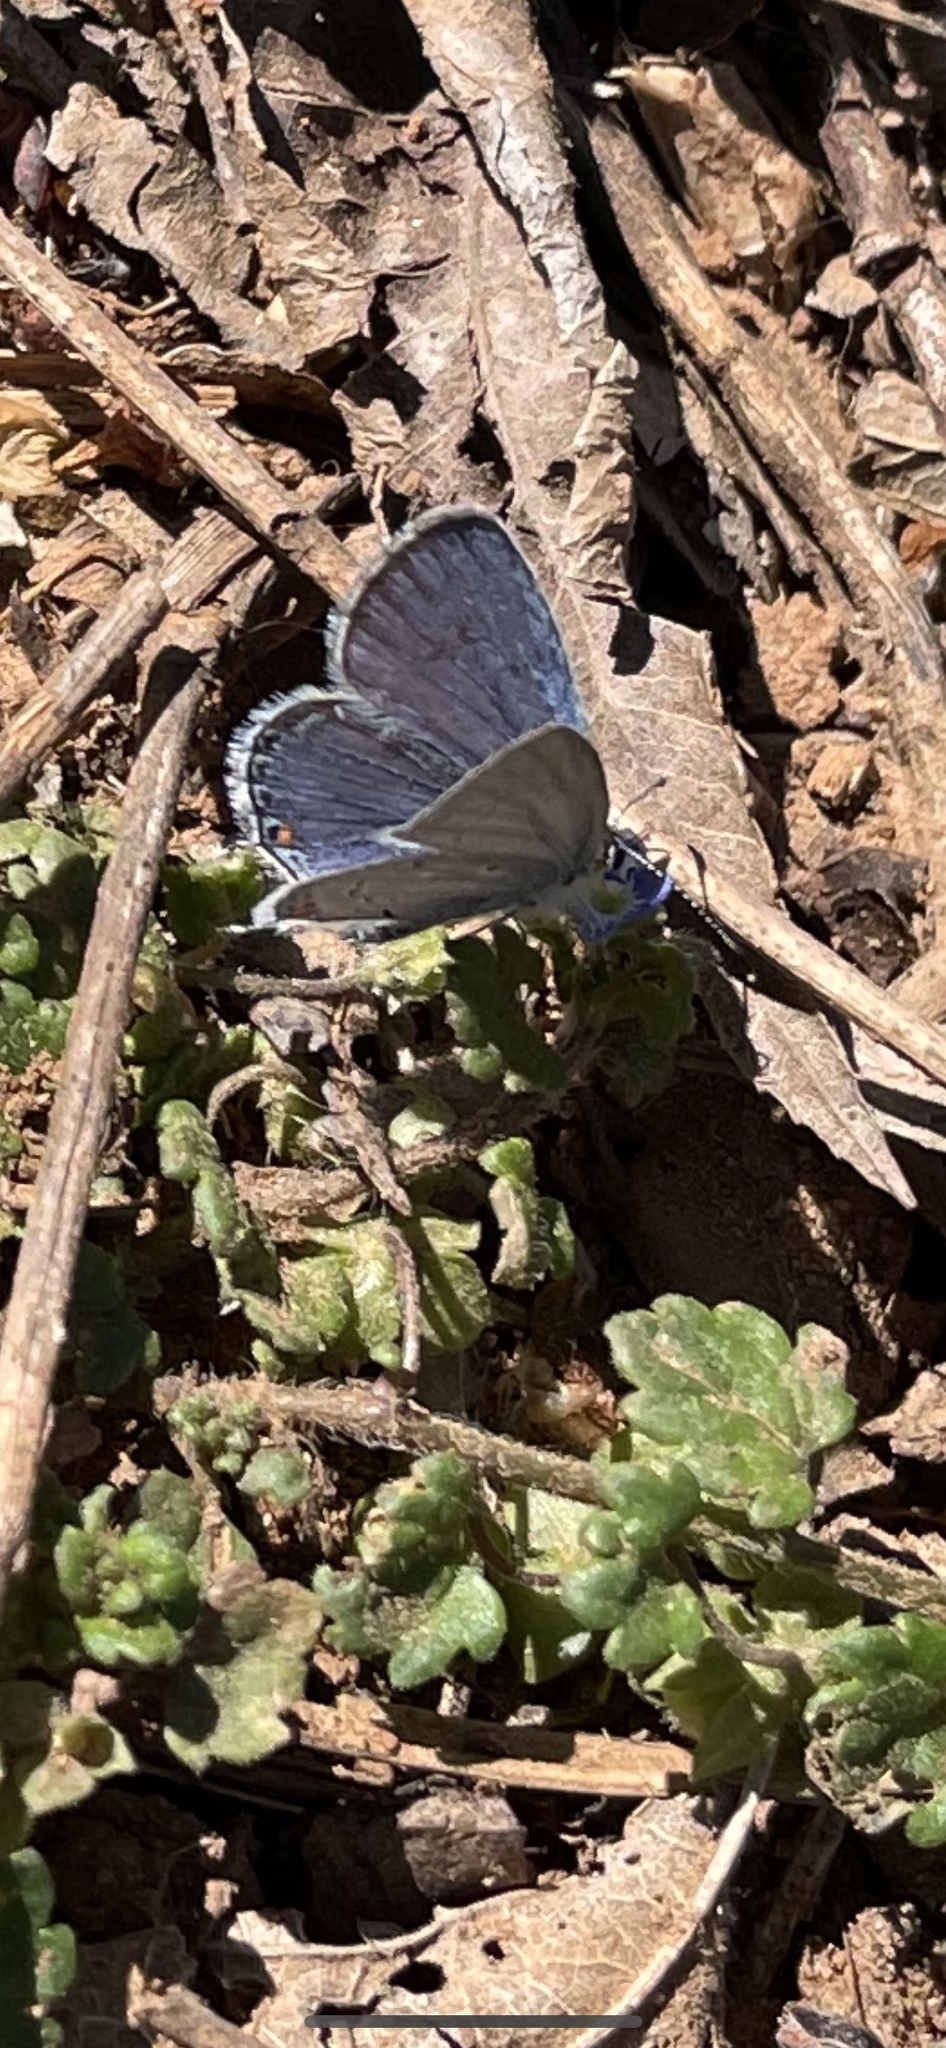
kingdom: Animalia
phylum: Arthropoda
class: Insecta
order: Lepidoptera
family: Lycaenidae
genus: Elkalyce
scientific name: Elkalyce comyntas
